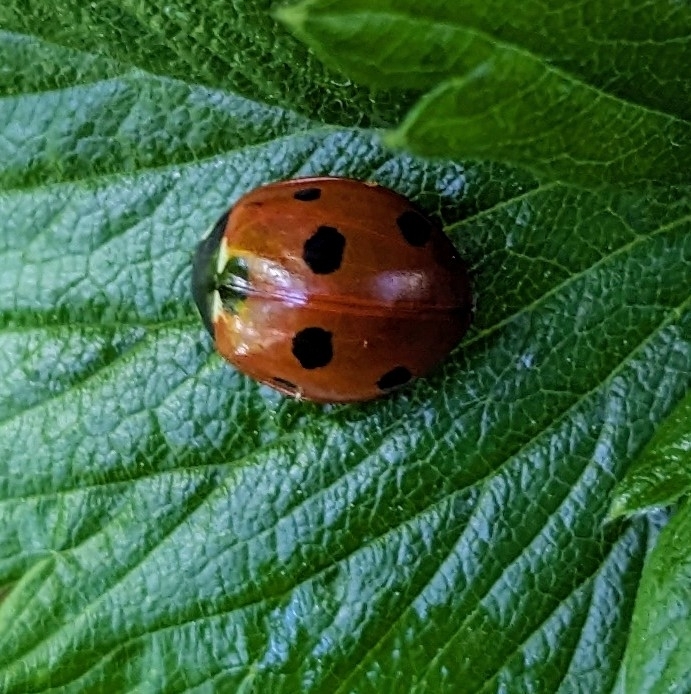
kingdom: Animalia
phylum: Arthropoda
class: Insecta
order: Coleoptera
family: Coccinellidae
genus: Coccinella
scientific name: Coccinella septempunctata
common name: Sevenspotted lady beetle
